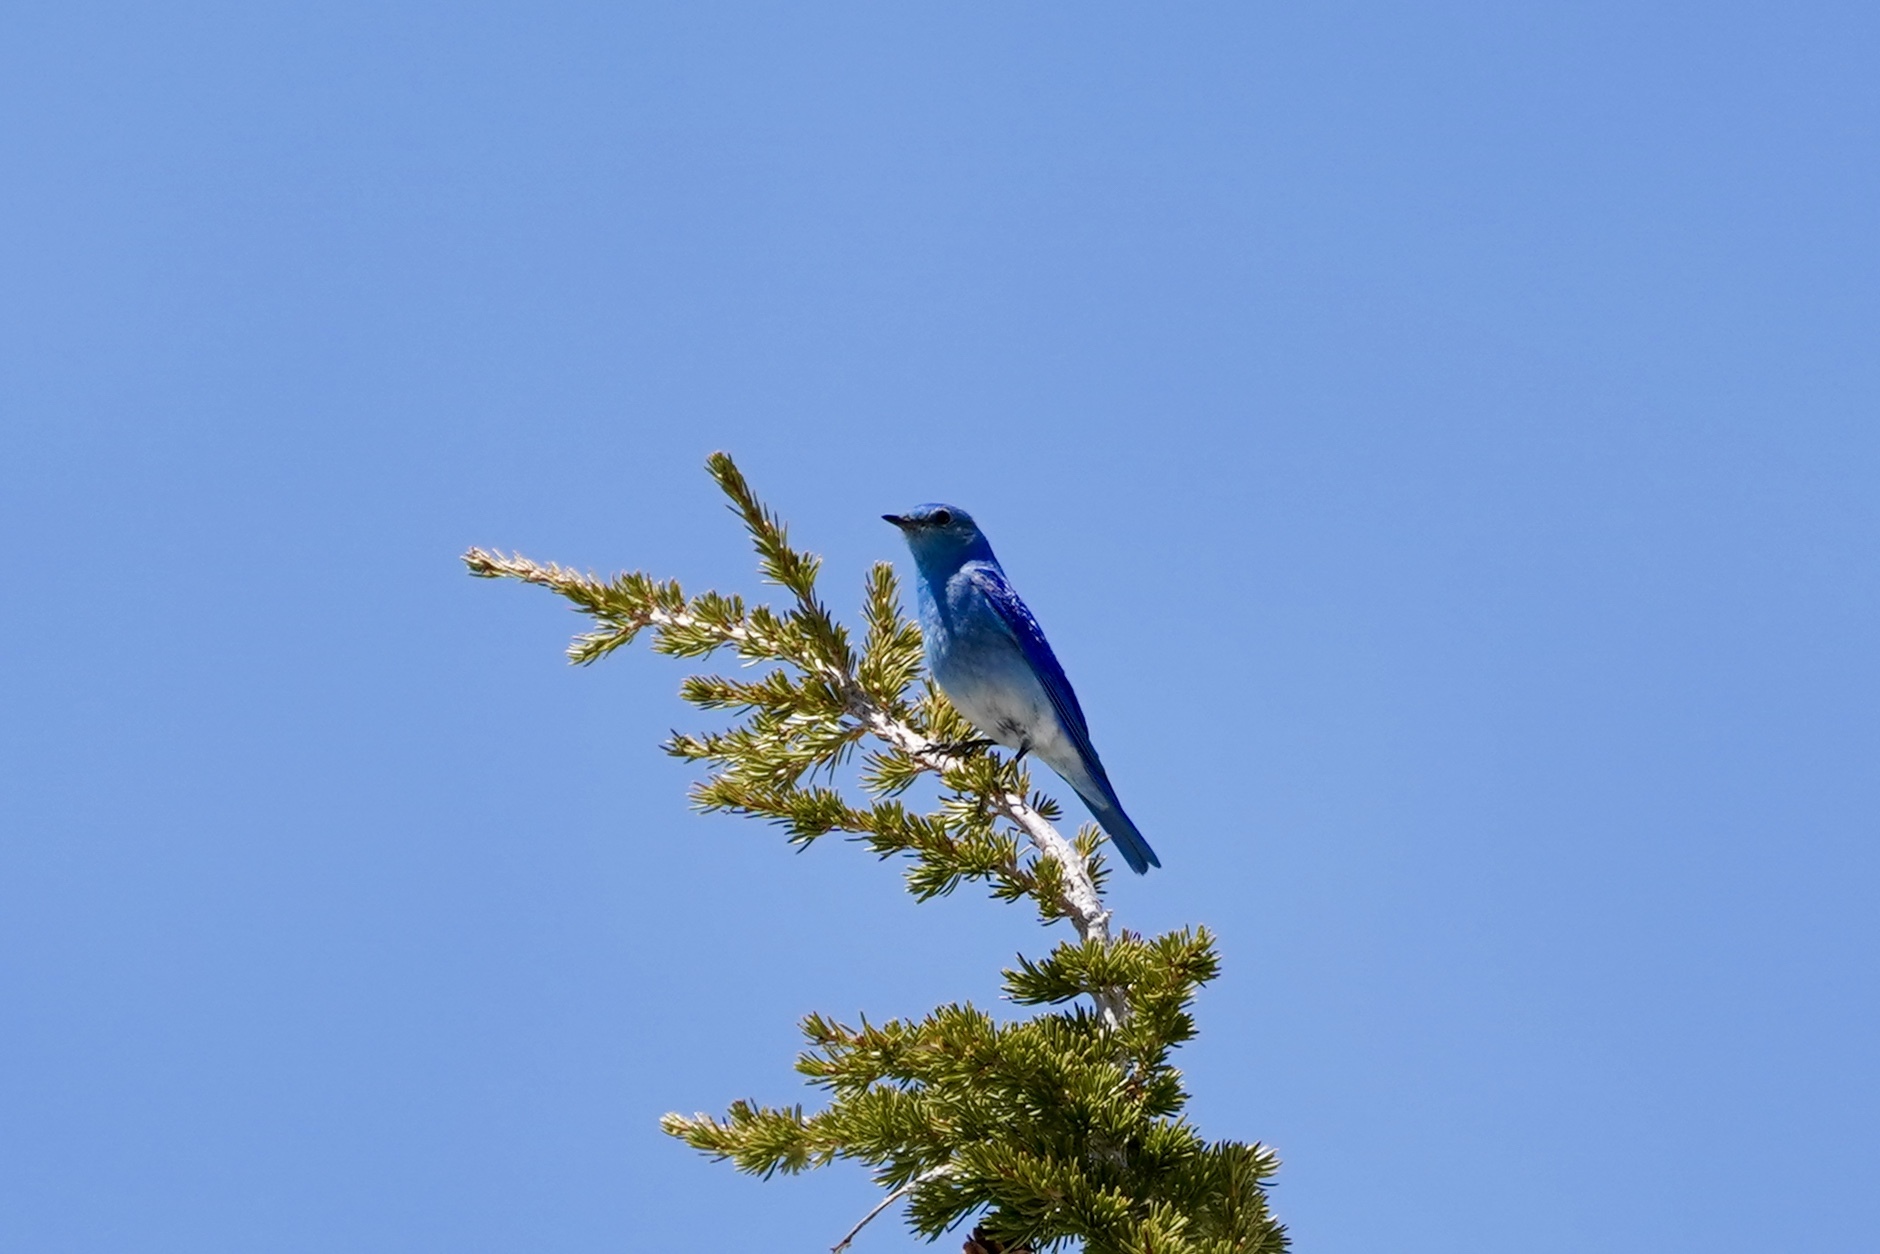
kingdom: Animalia
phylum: Chordata
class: Aves
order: Passeriformes
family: Turdidae
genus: Sialia
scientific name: Sialia currucoides
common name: Mountain bluebird
